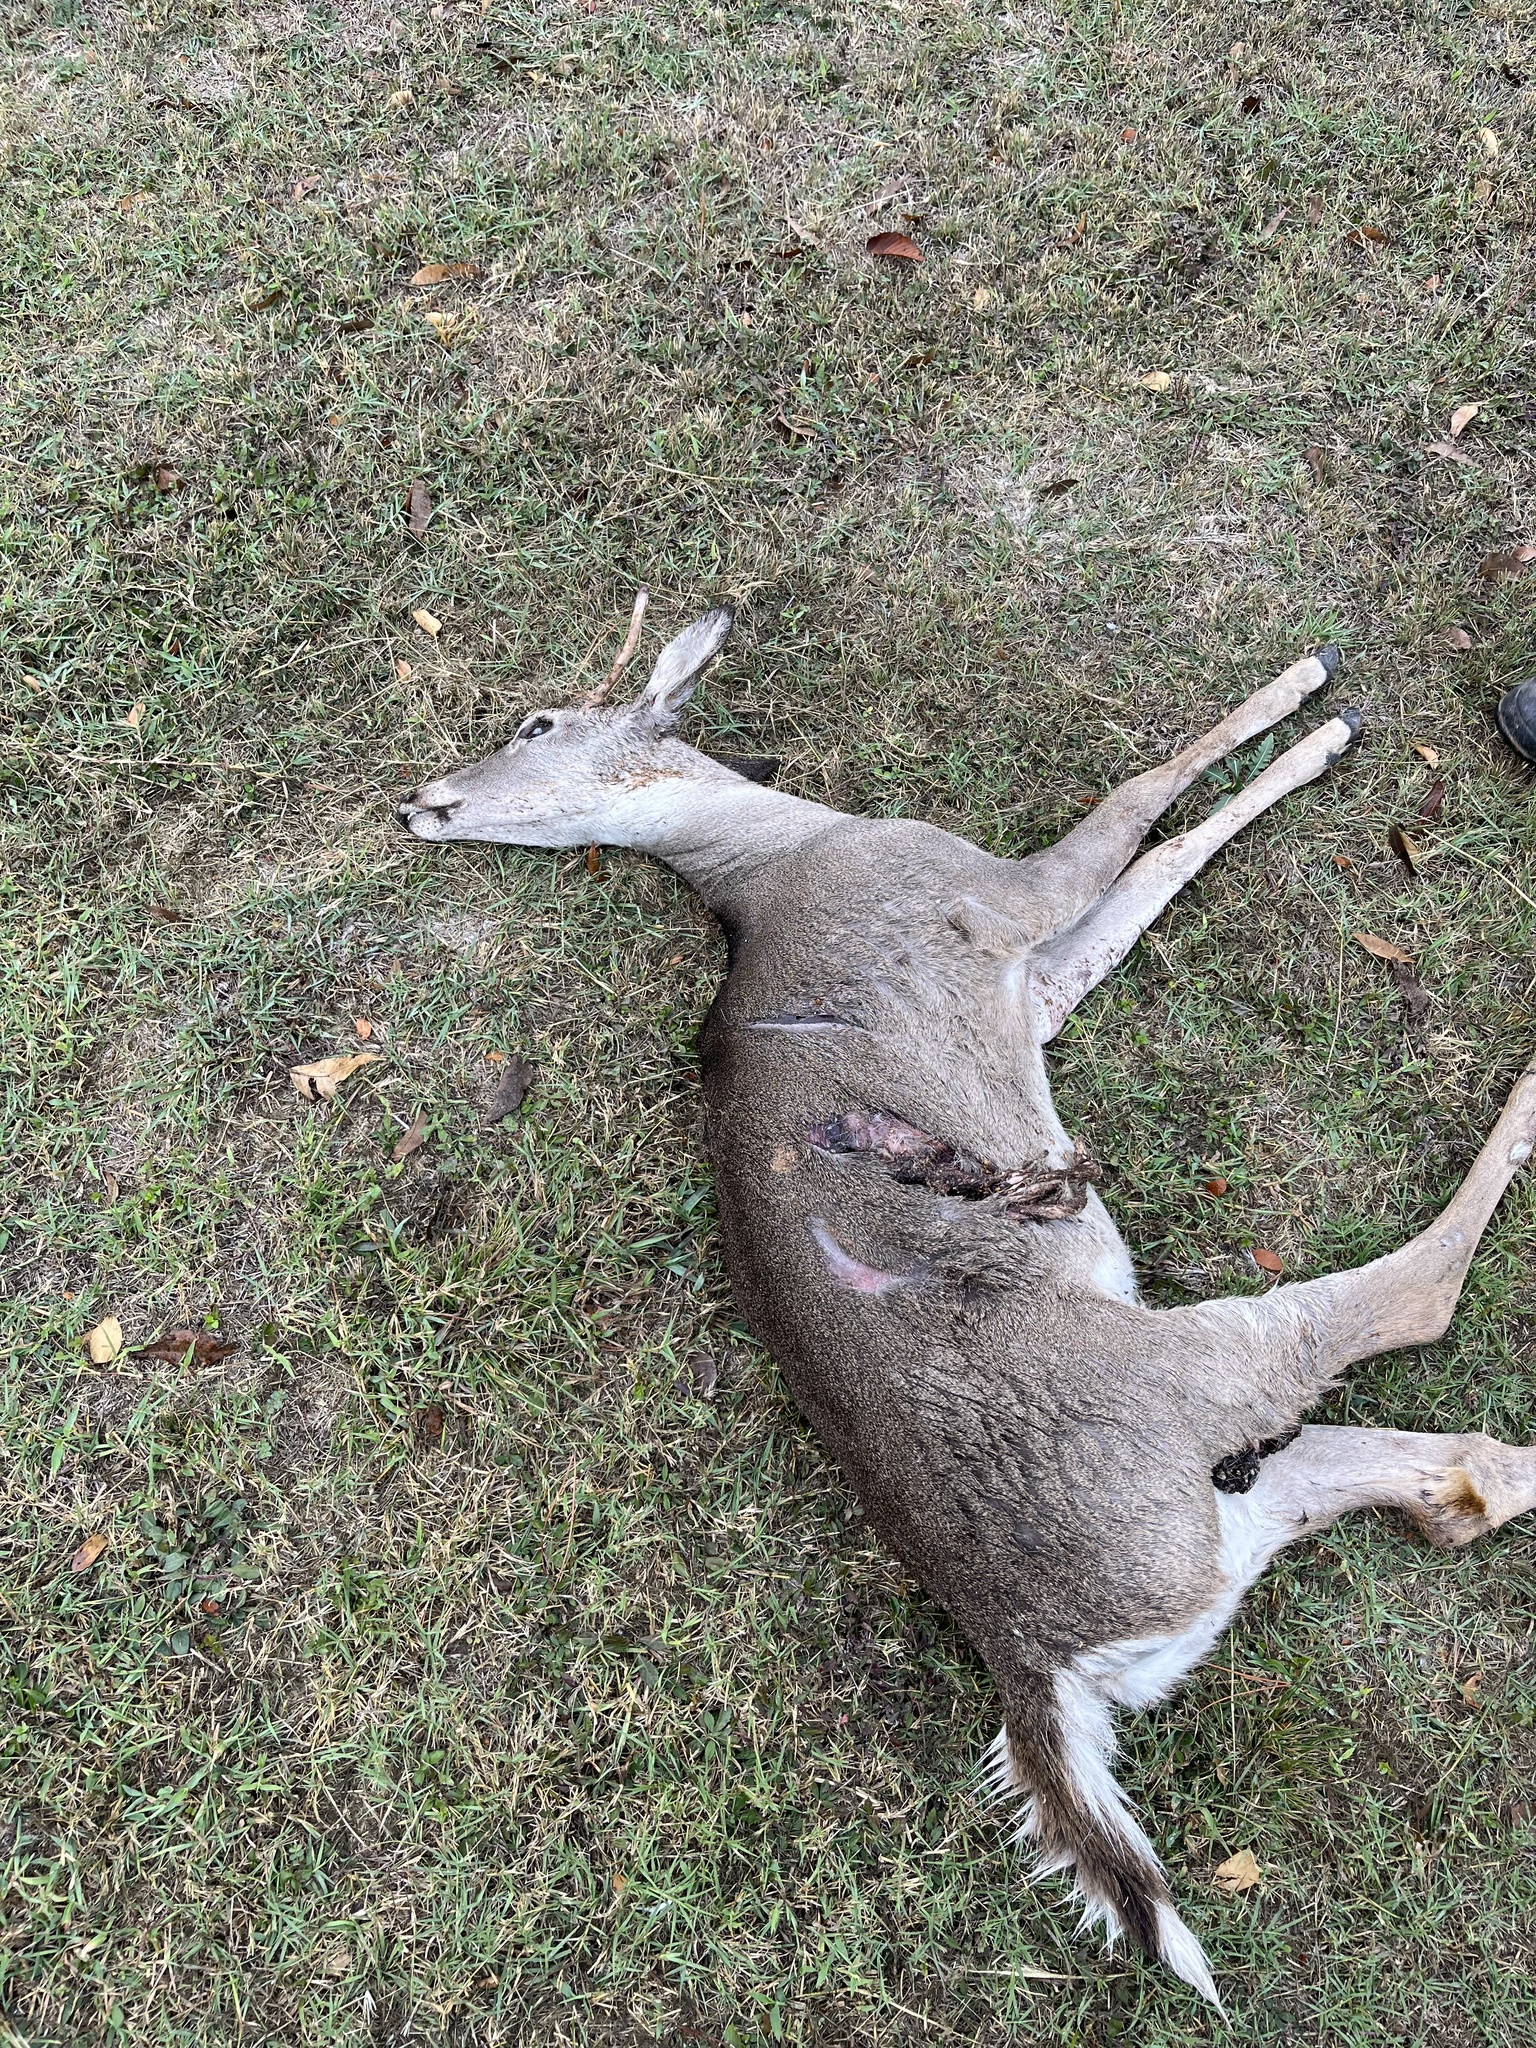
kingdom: Animalia
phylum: Chordata
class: Mammalia
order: Artiodactyla
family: Cervidae
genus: Odocoileus
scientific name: Odocoileus virginianus
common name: White-tailed deer
